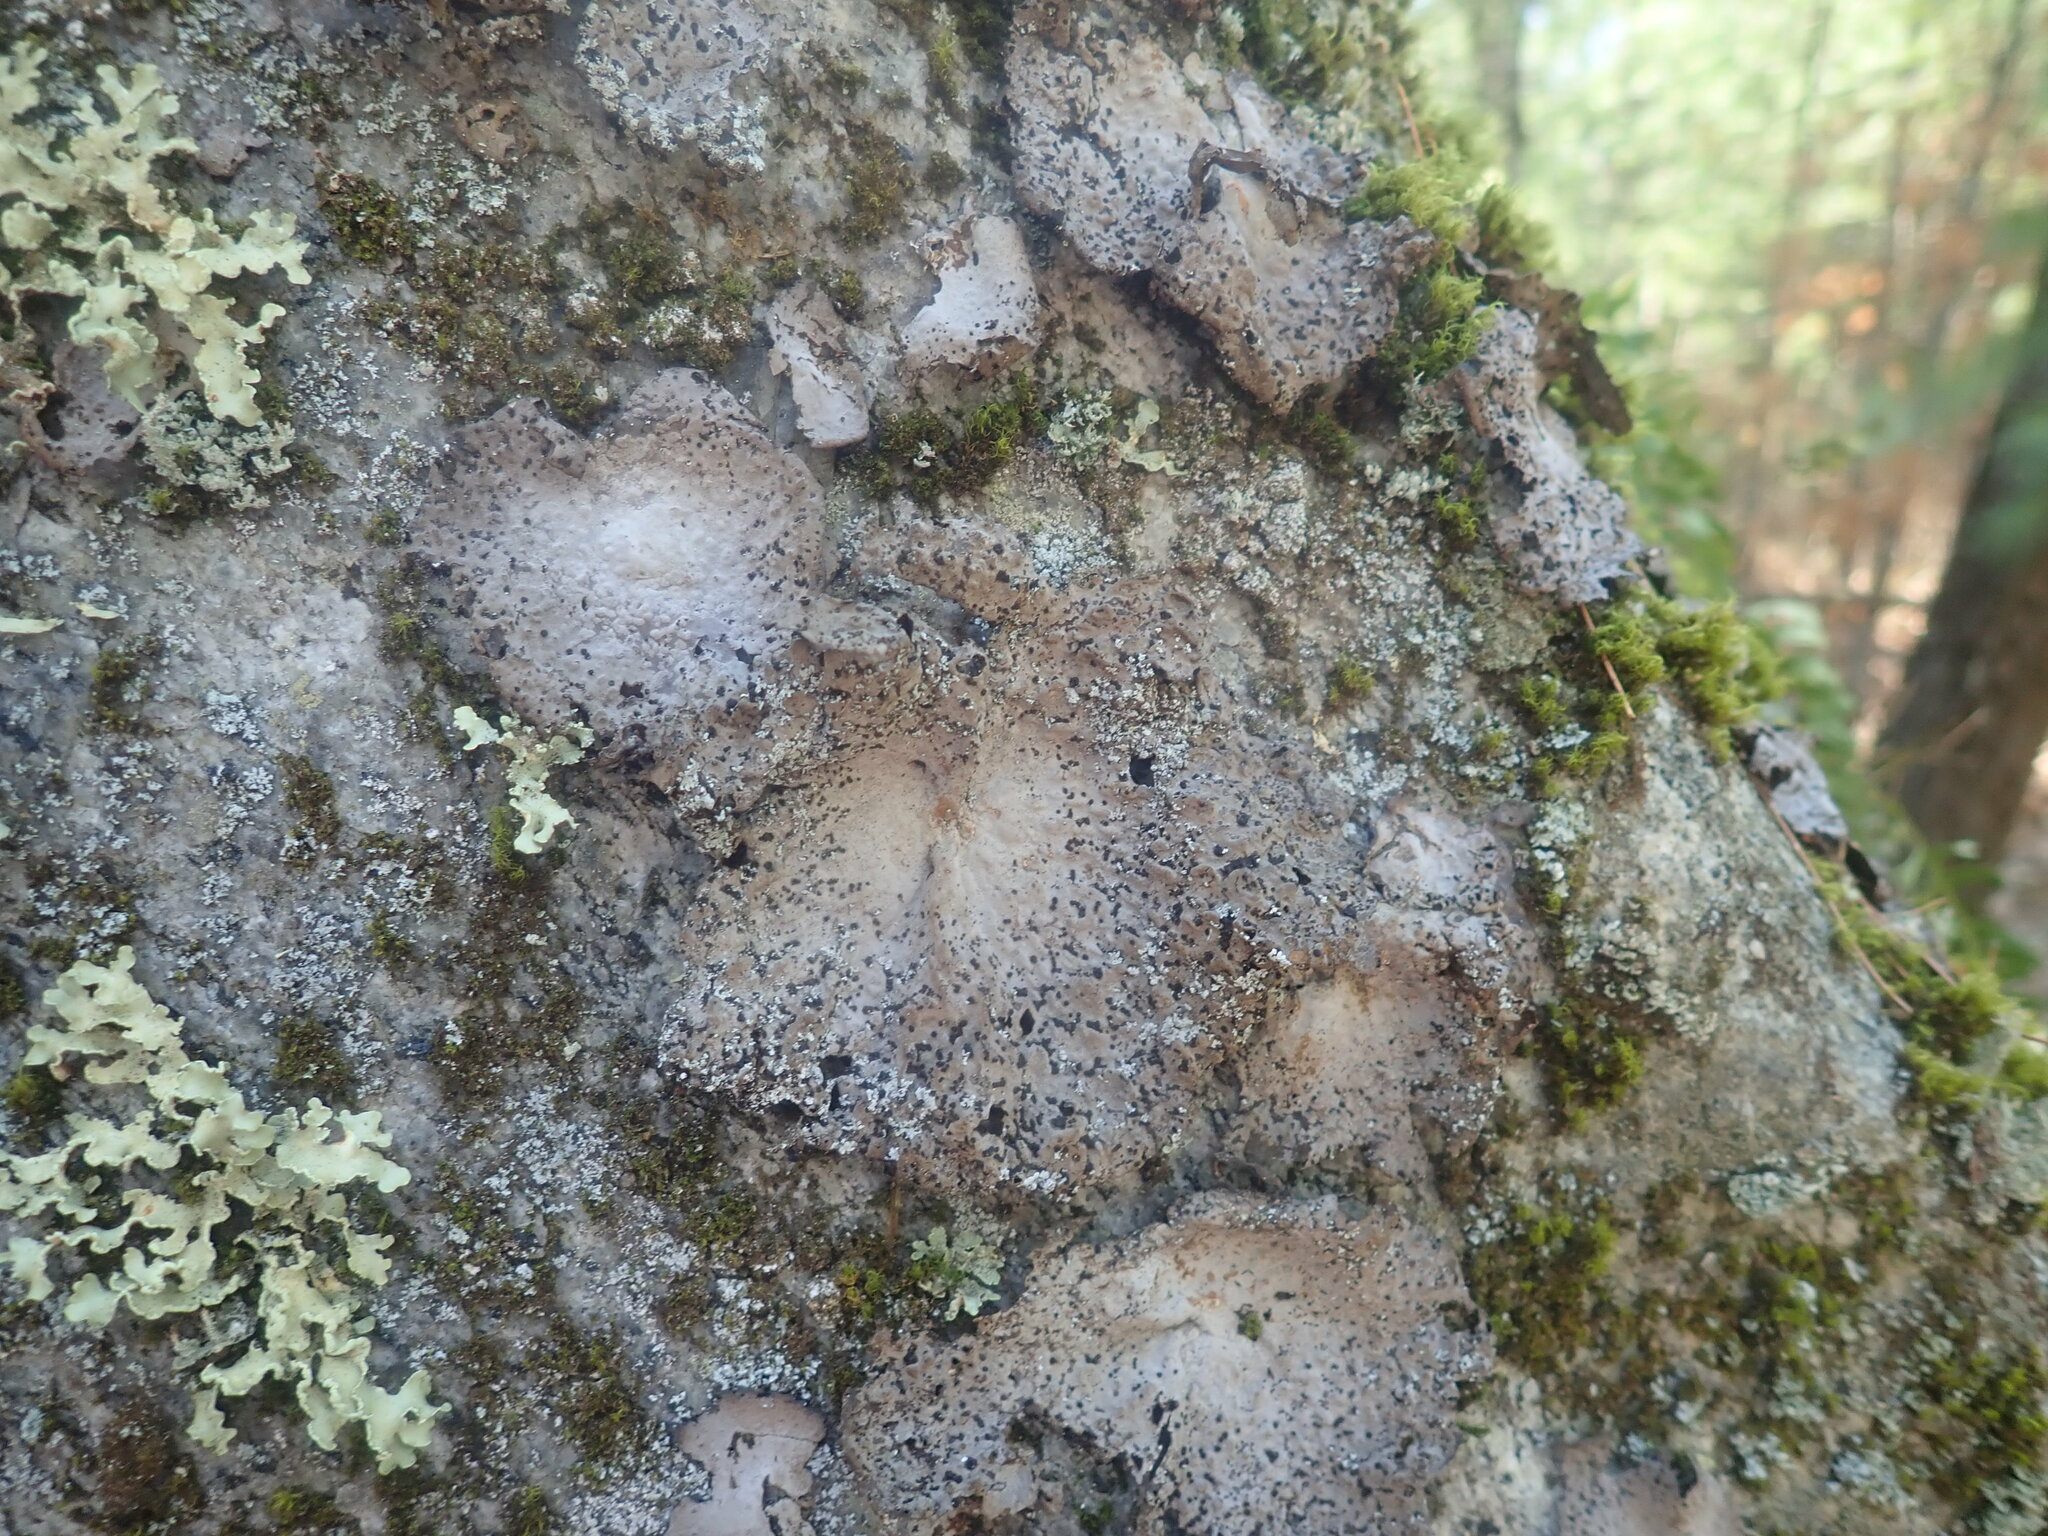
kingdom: Fungi
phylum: Ascomycota
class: Lecanoromycetes
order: Umbilicariales
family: Umbilicariaceae
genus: Lasallia
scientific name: Lasallia papulosa
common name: Common toadskin lichen
